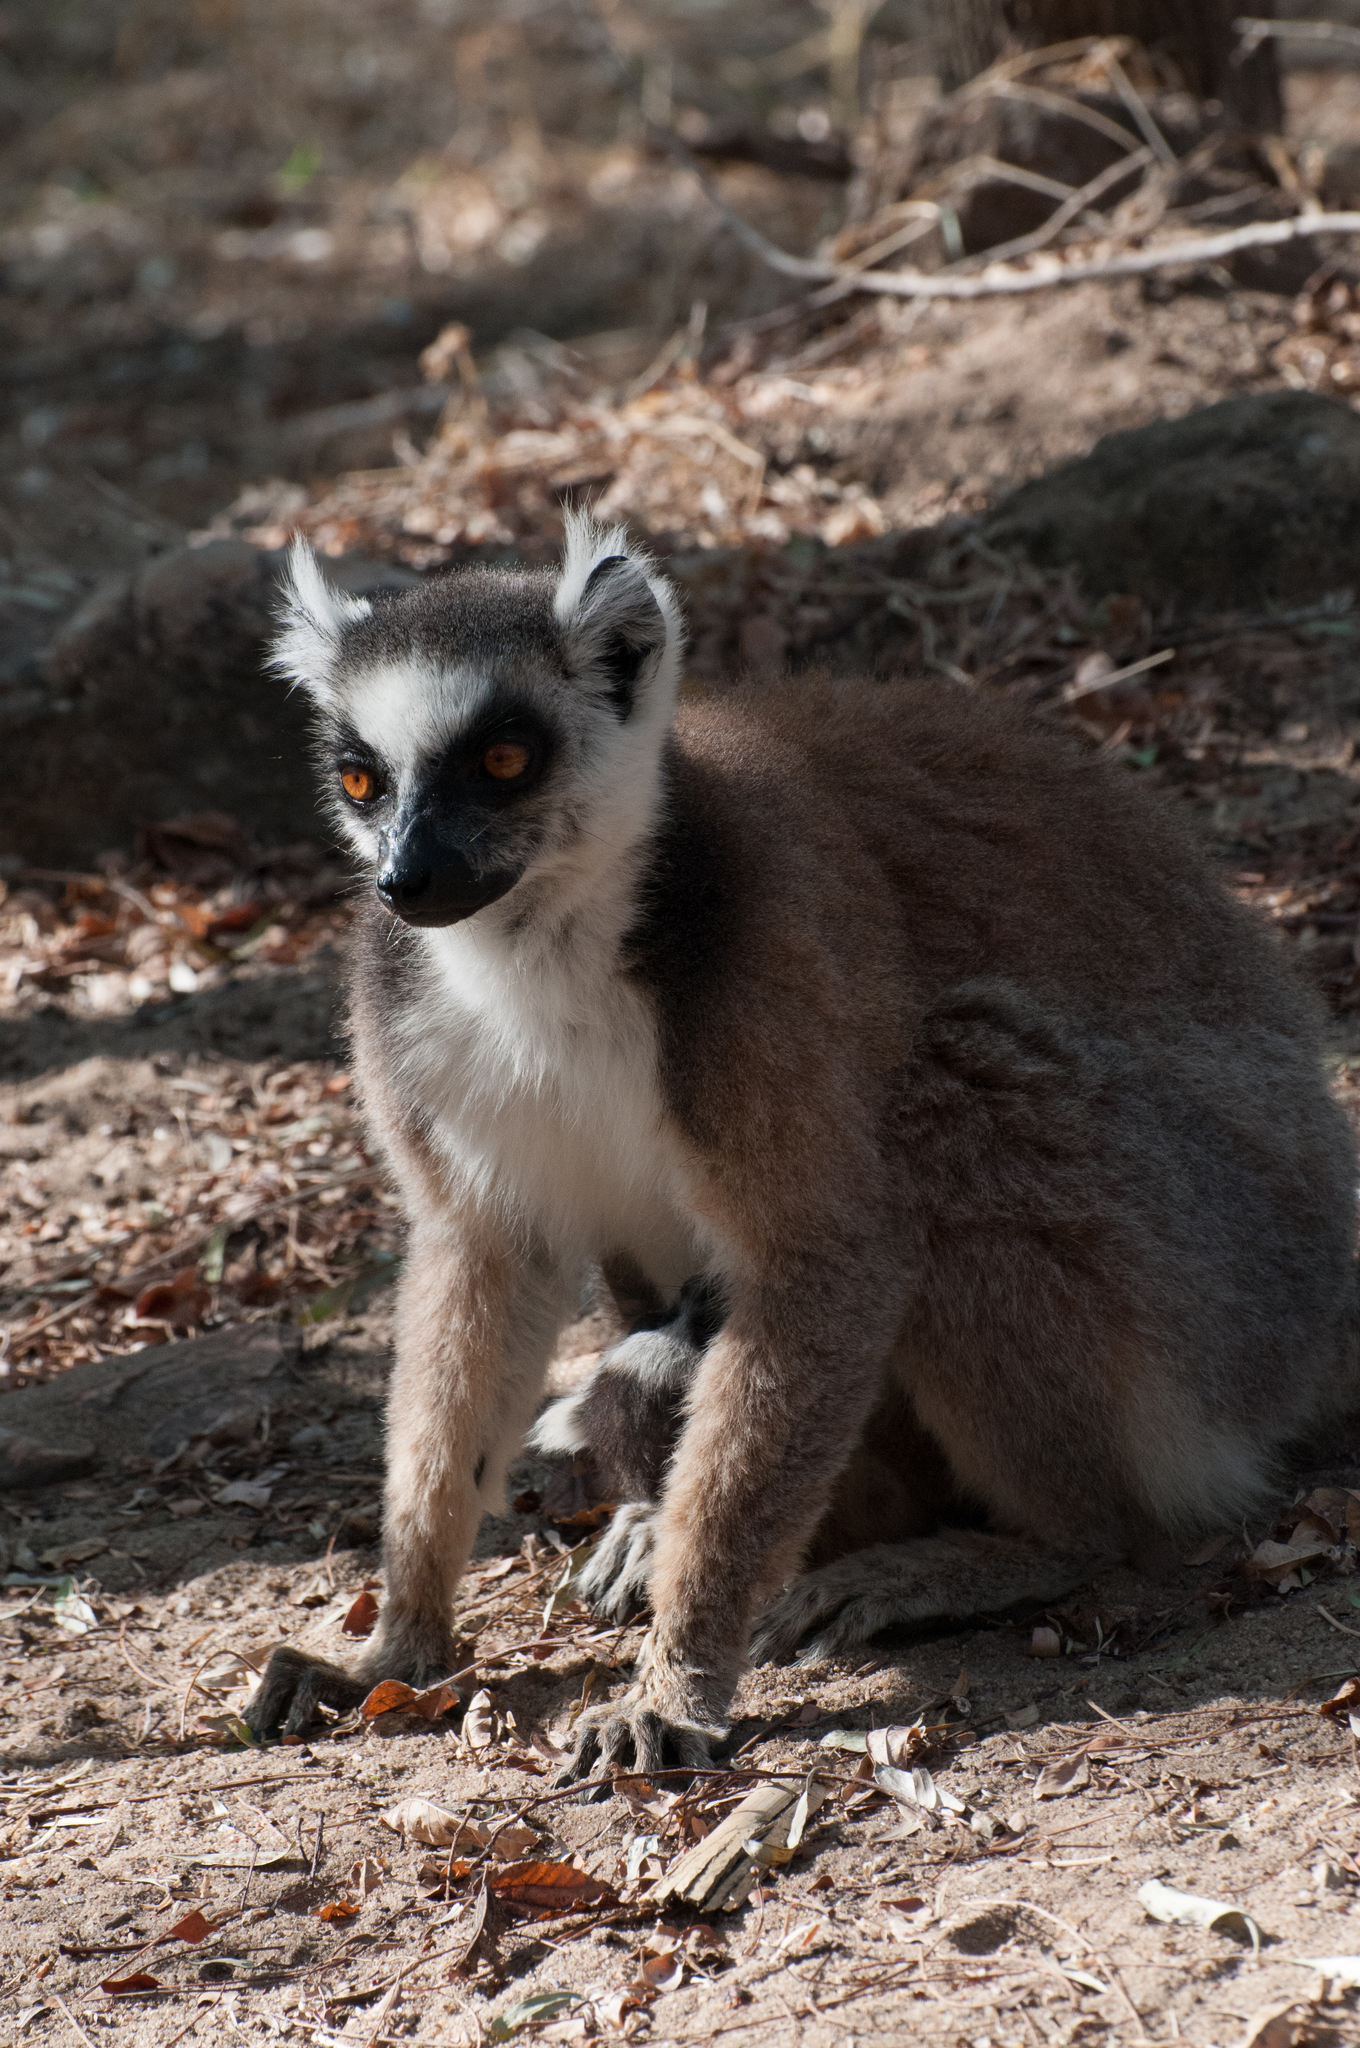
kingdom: Animalia
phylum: Chordata
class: Mammalia
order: Primates
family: Lemuridae
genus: Lemur
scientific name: Lemur catta
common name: Ring-tailed lemur
